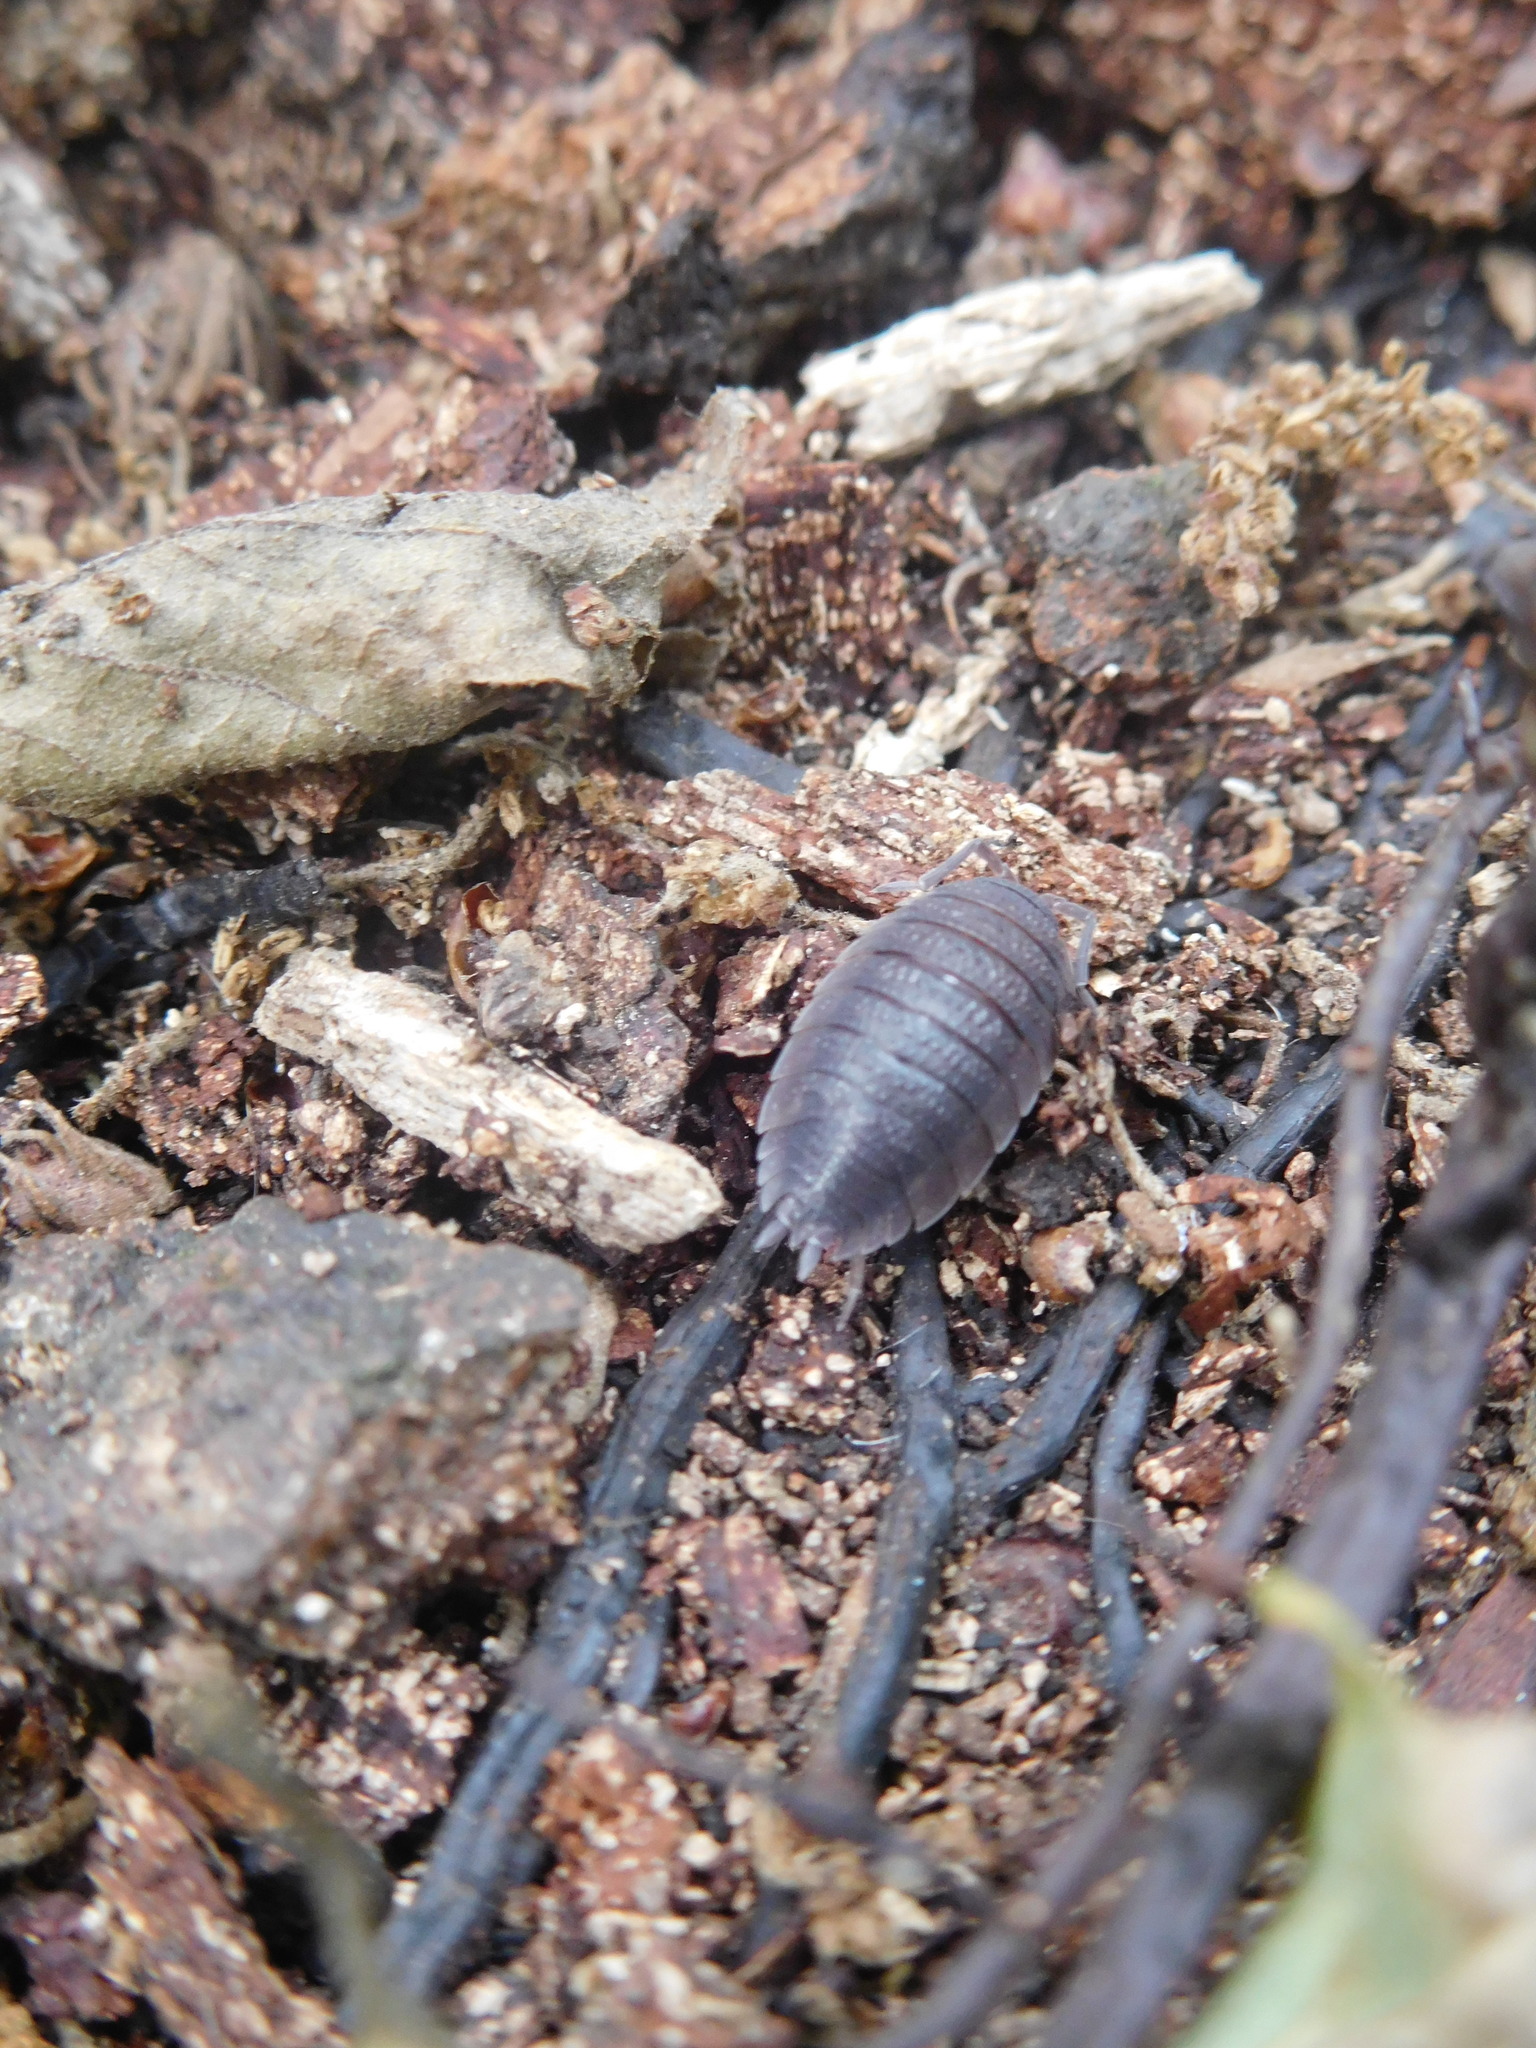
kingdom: Animalia
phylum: Arthropoda
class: Malacostraca
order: Isopoda
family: Porcellionidae
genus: Porcellio
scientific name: Porcellio scaber
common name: Common rough woodlouse
